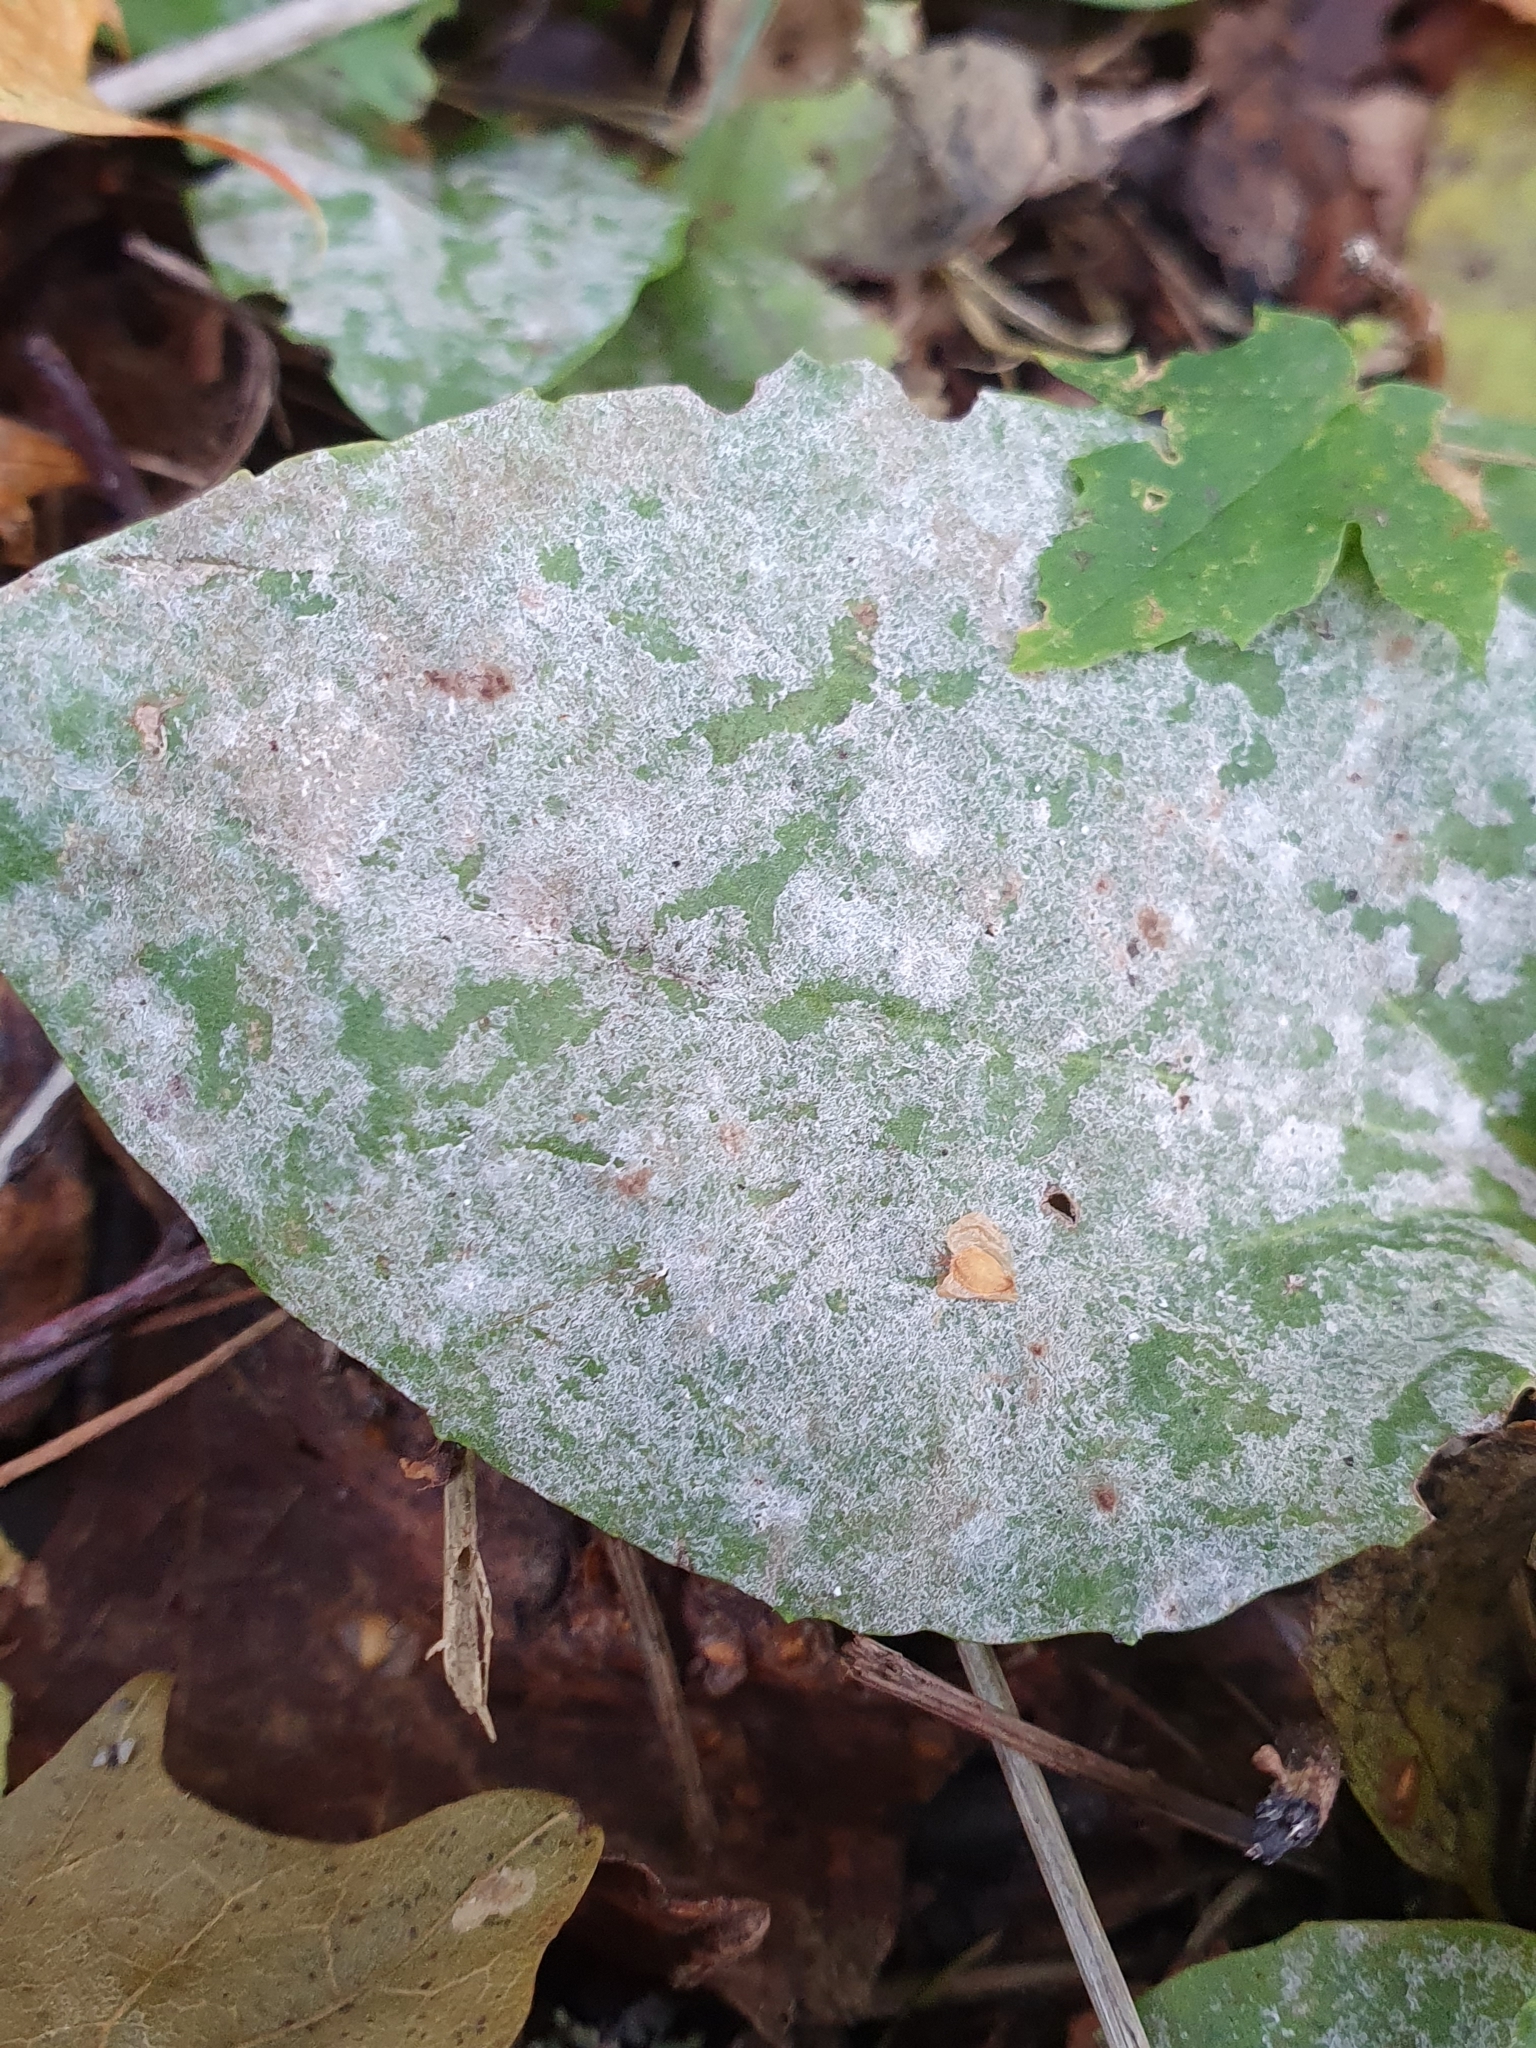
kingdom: Fungi
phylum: Ascomycota
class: Leotiomycetes
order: Helotiales
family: Erysiphaceae
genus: Golovinomyces
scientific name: Golovinomyces sordidus
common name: Plantain mildew
